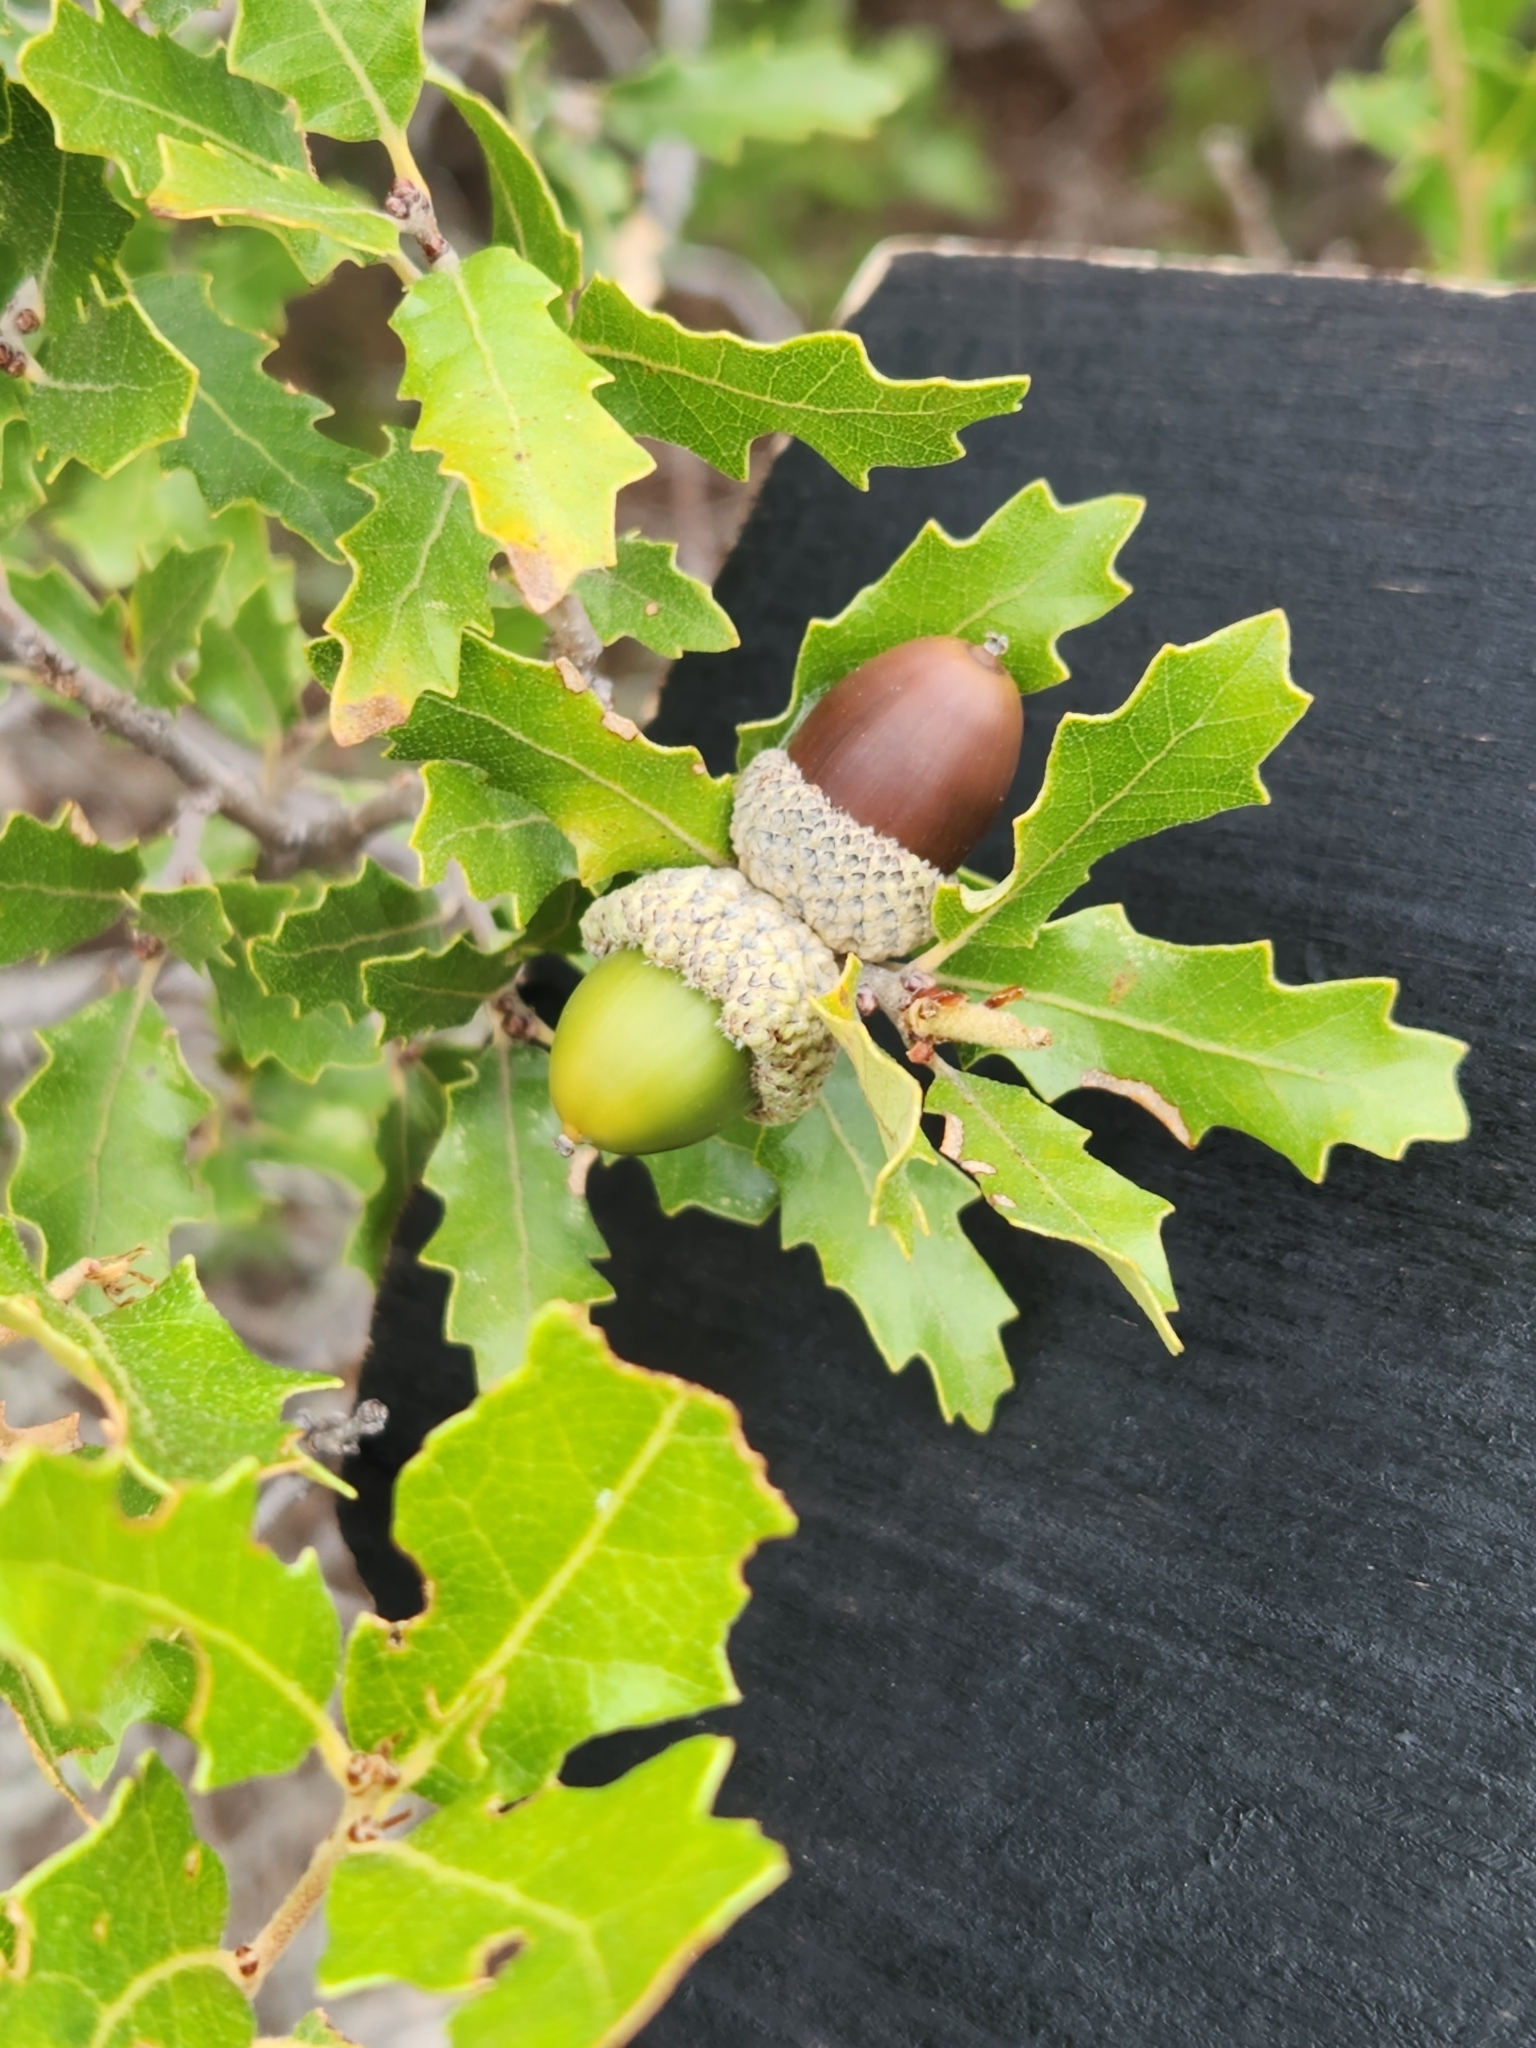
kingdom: Plantae
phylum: Tracheophyta
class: Magnoliopsida
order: Fagales
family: Fagaceae
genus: Quercus
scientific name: Quercus vaseyana
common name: Sandpaper oak
